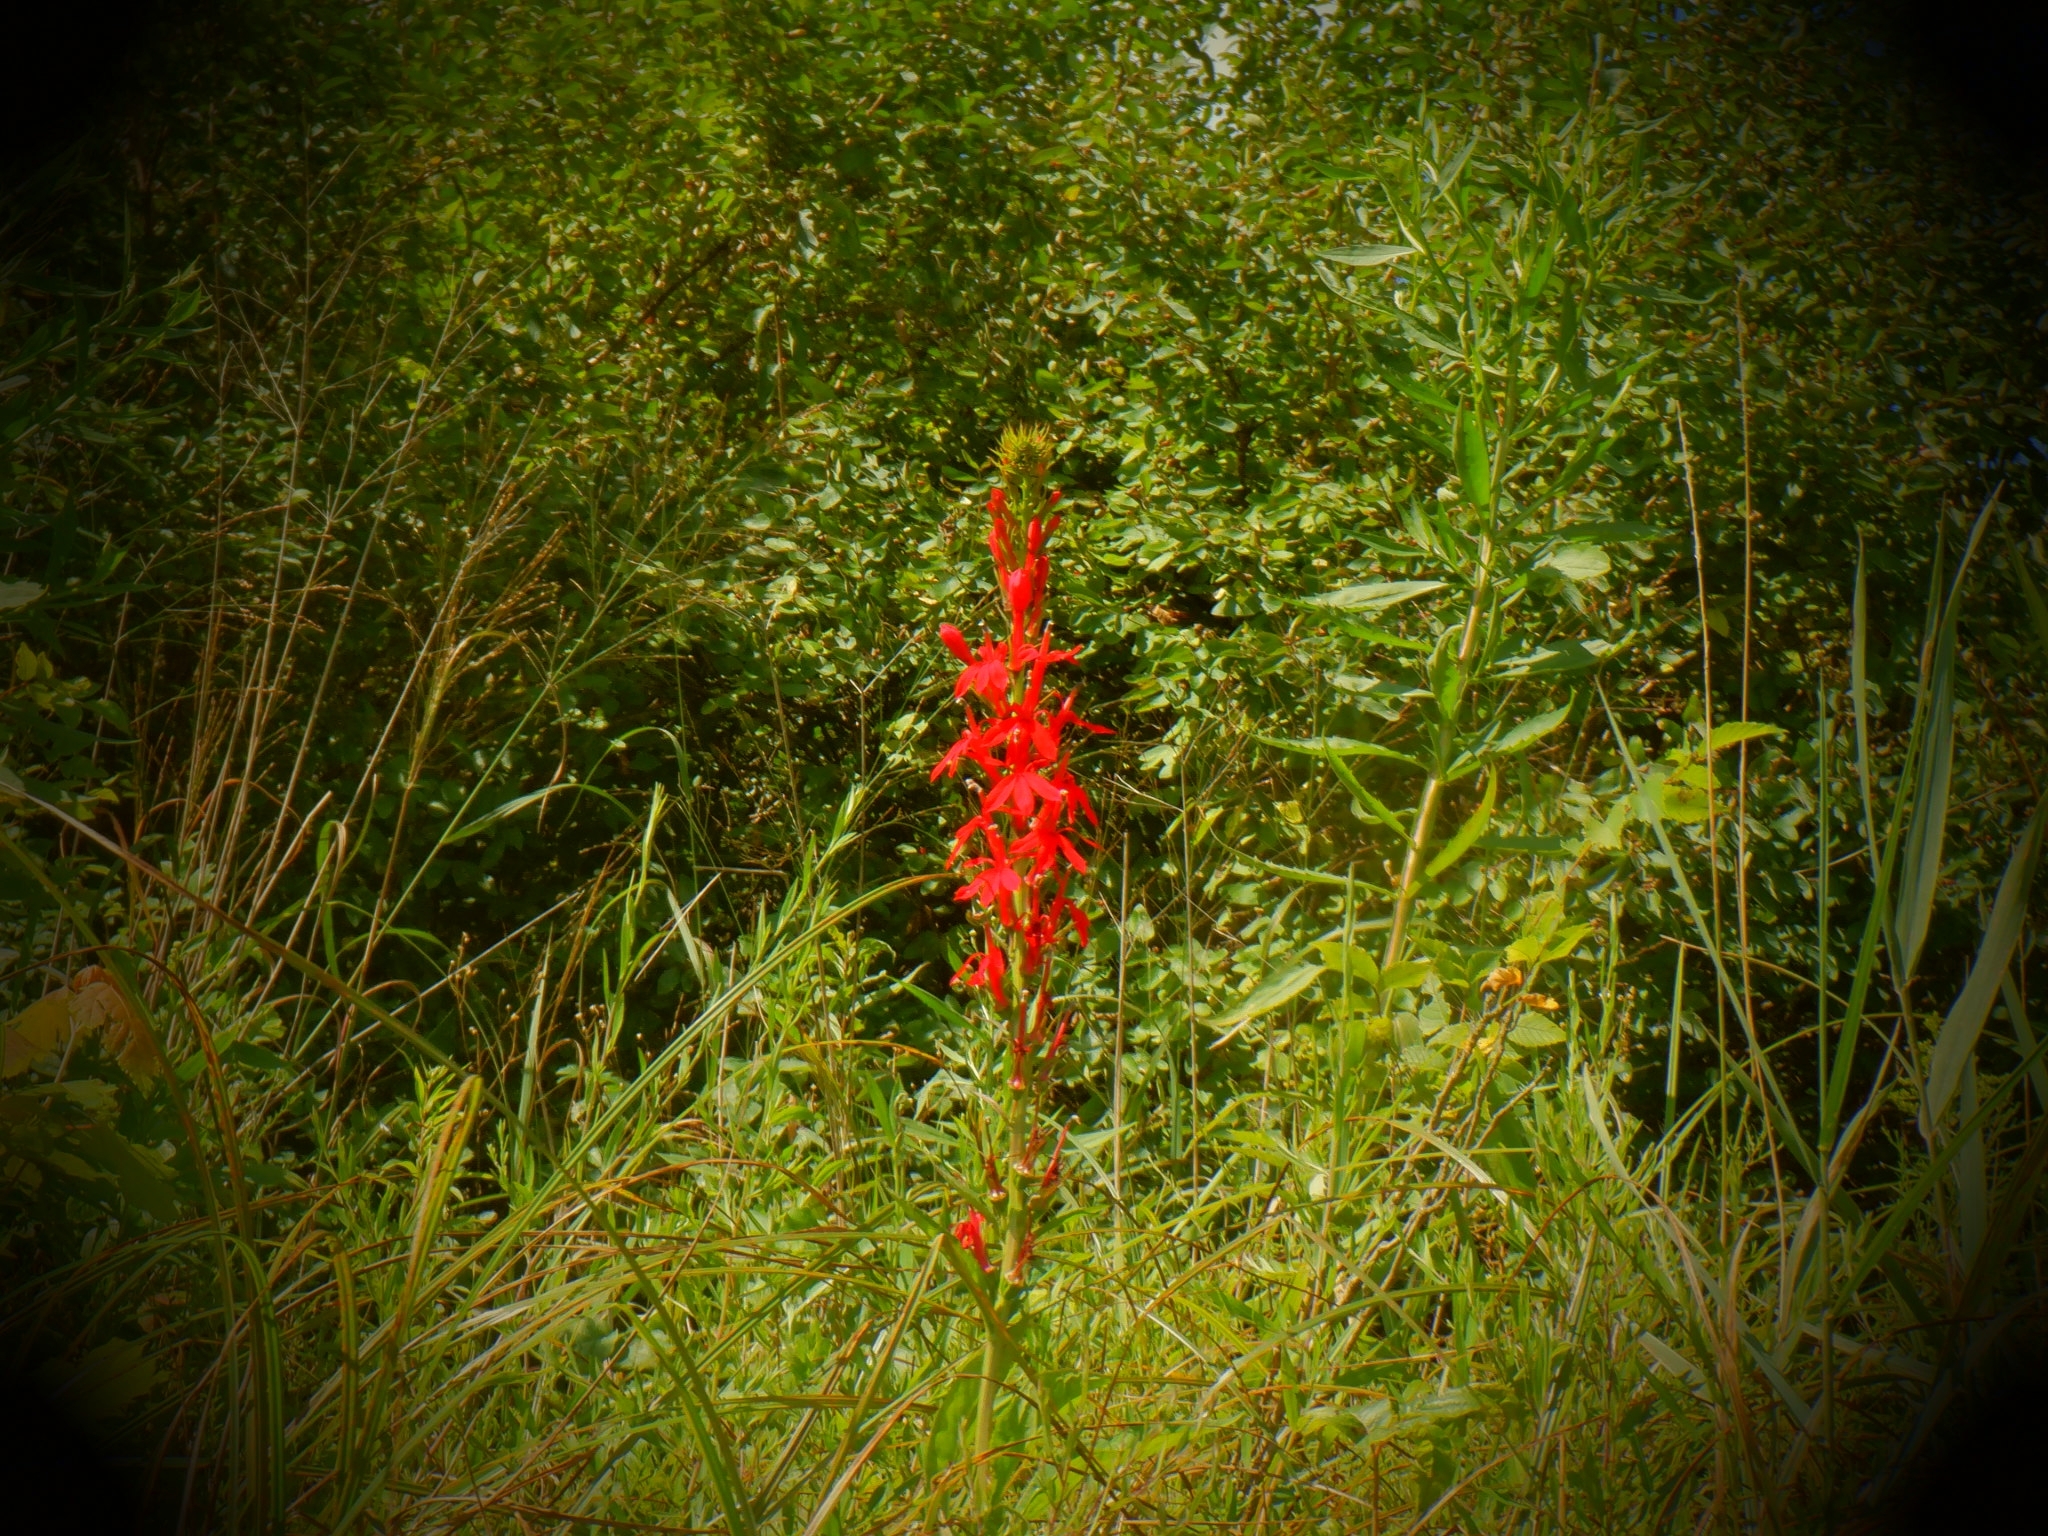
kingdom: Plantae
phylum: Tracheophyta
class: Magnoliopsida
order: Asterales
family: Campanulaceae
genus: Lobelia
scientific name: Lobelia cardinalis
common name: Cardinal flower
